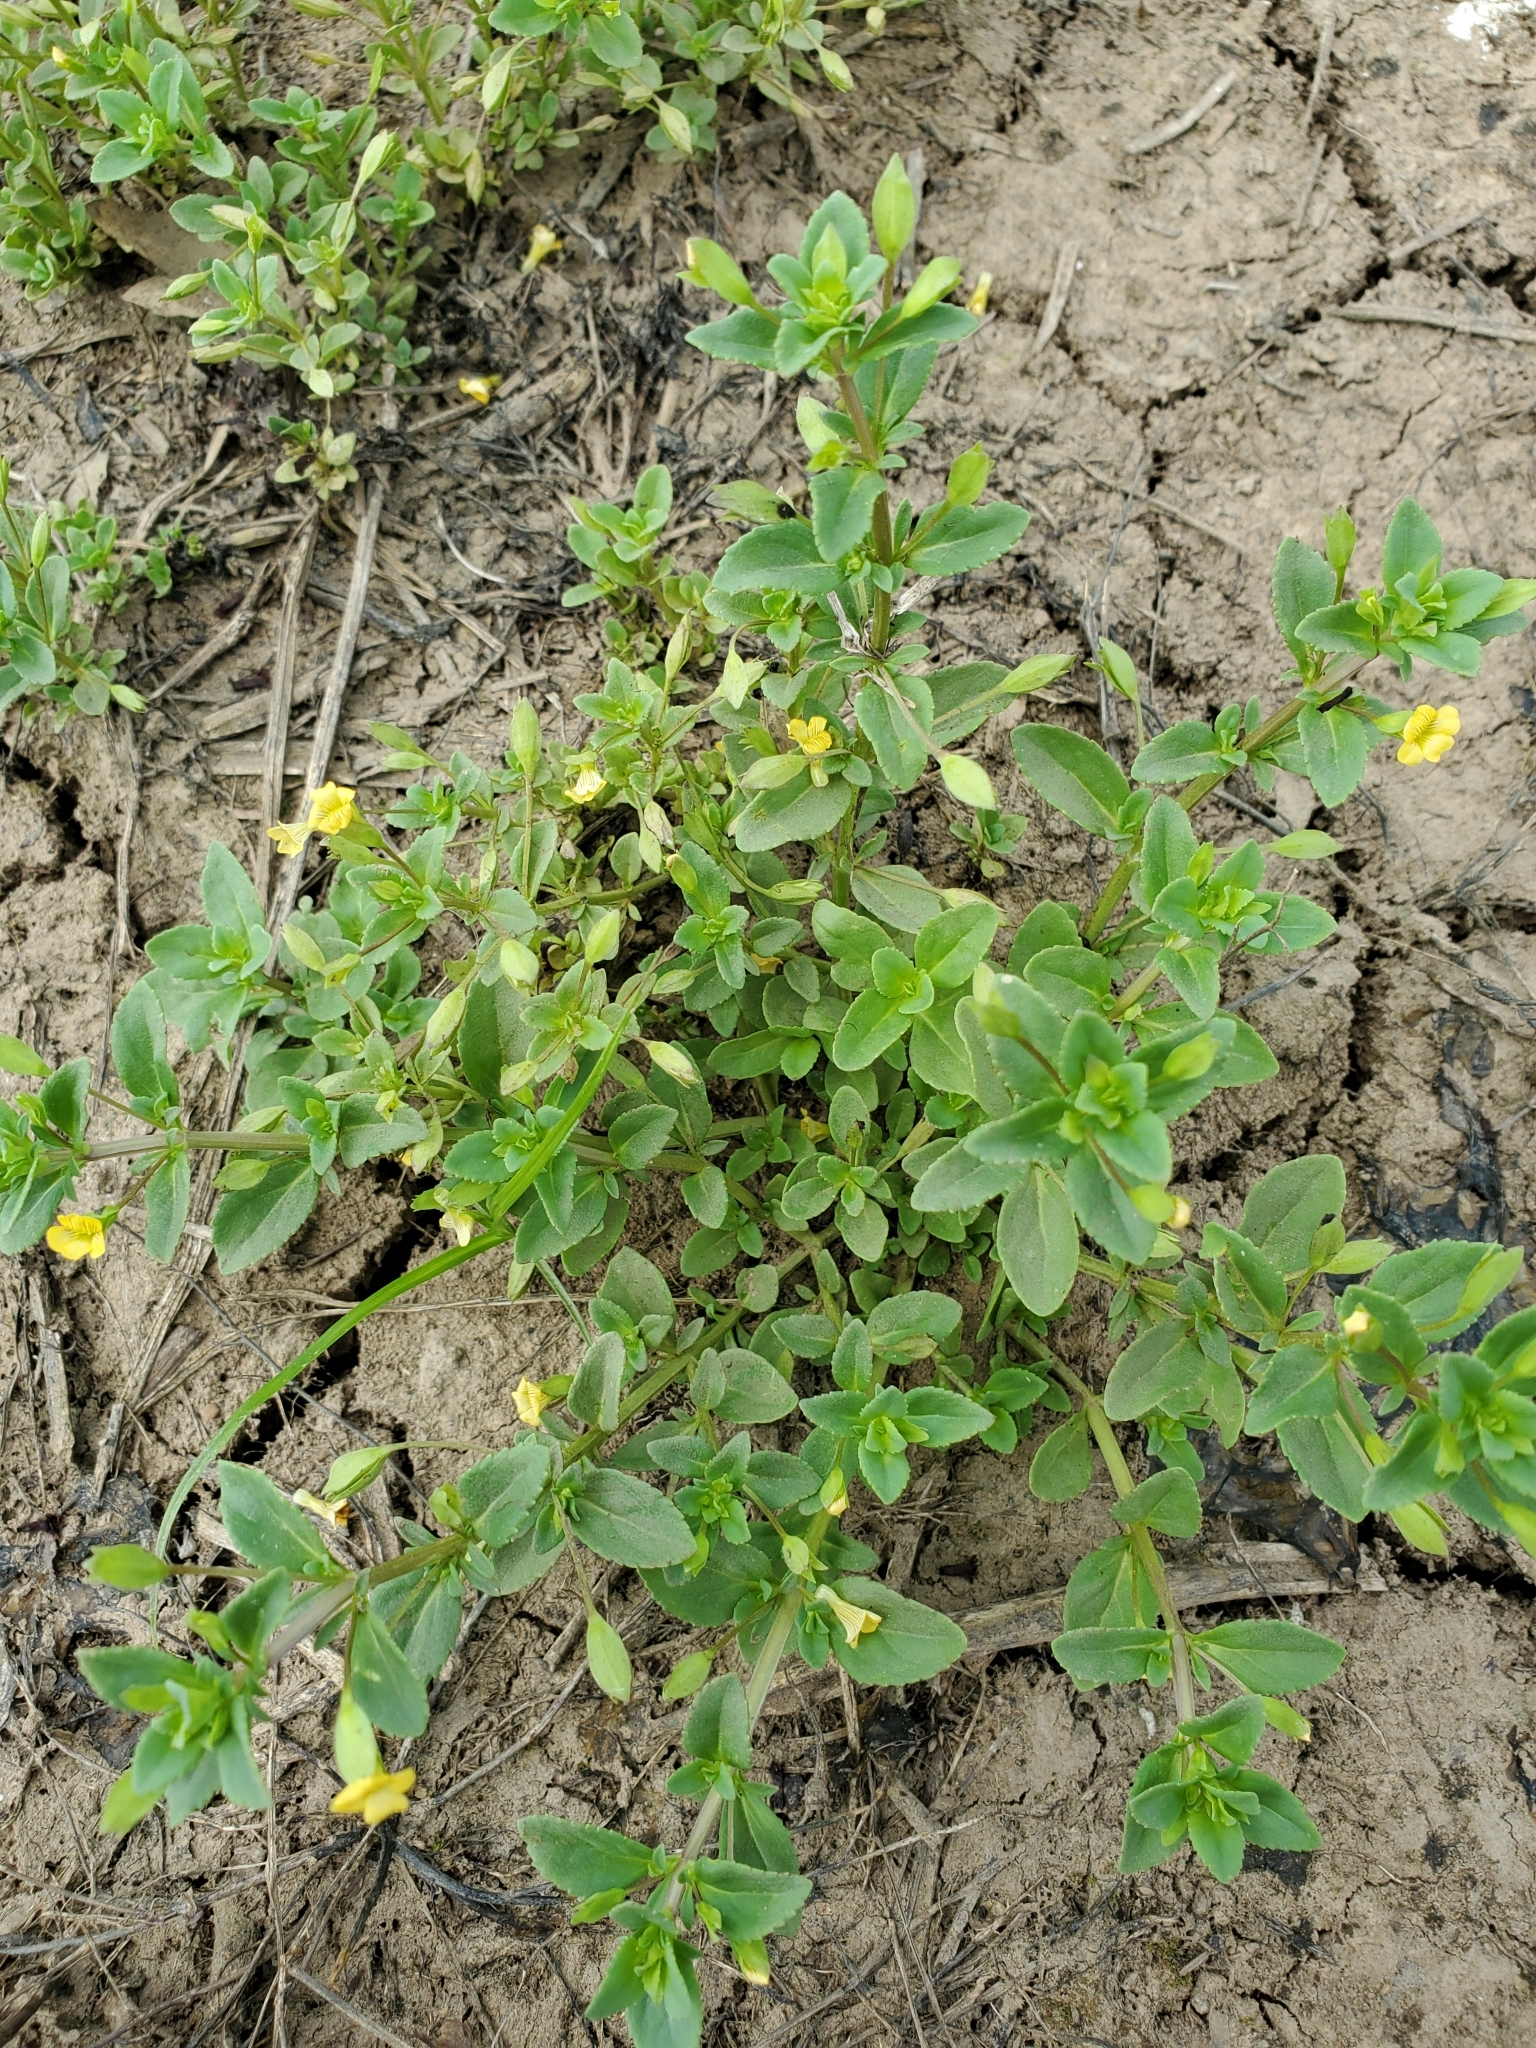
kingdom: Plantae
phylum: Tracheophyta
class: Magnoliopsida
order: Lamiales
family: Plantaginaceae
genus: Mecardonia
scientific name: Mecardonia procumbens
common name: Baby jump-up
